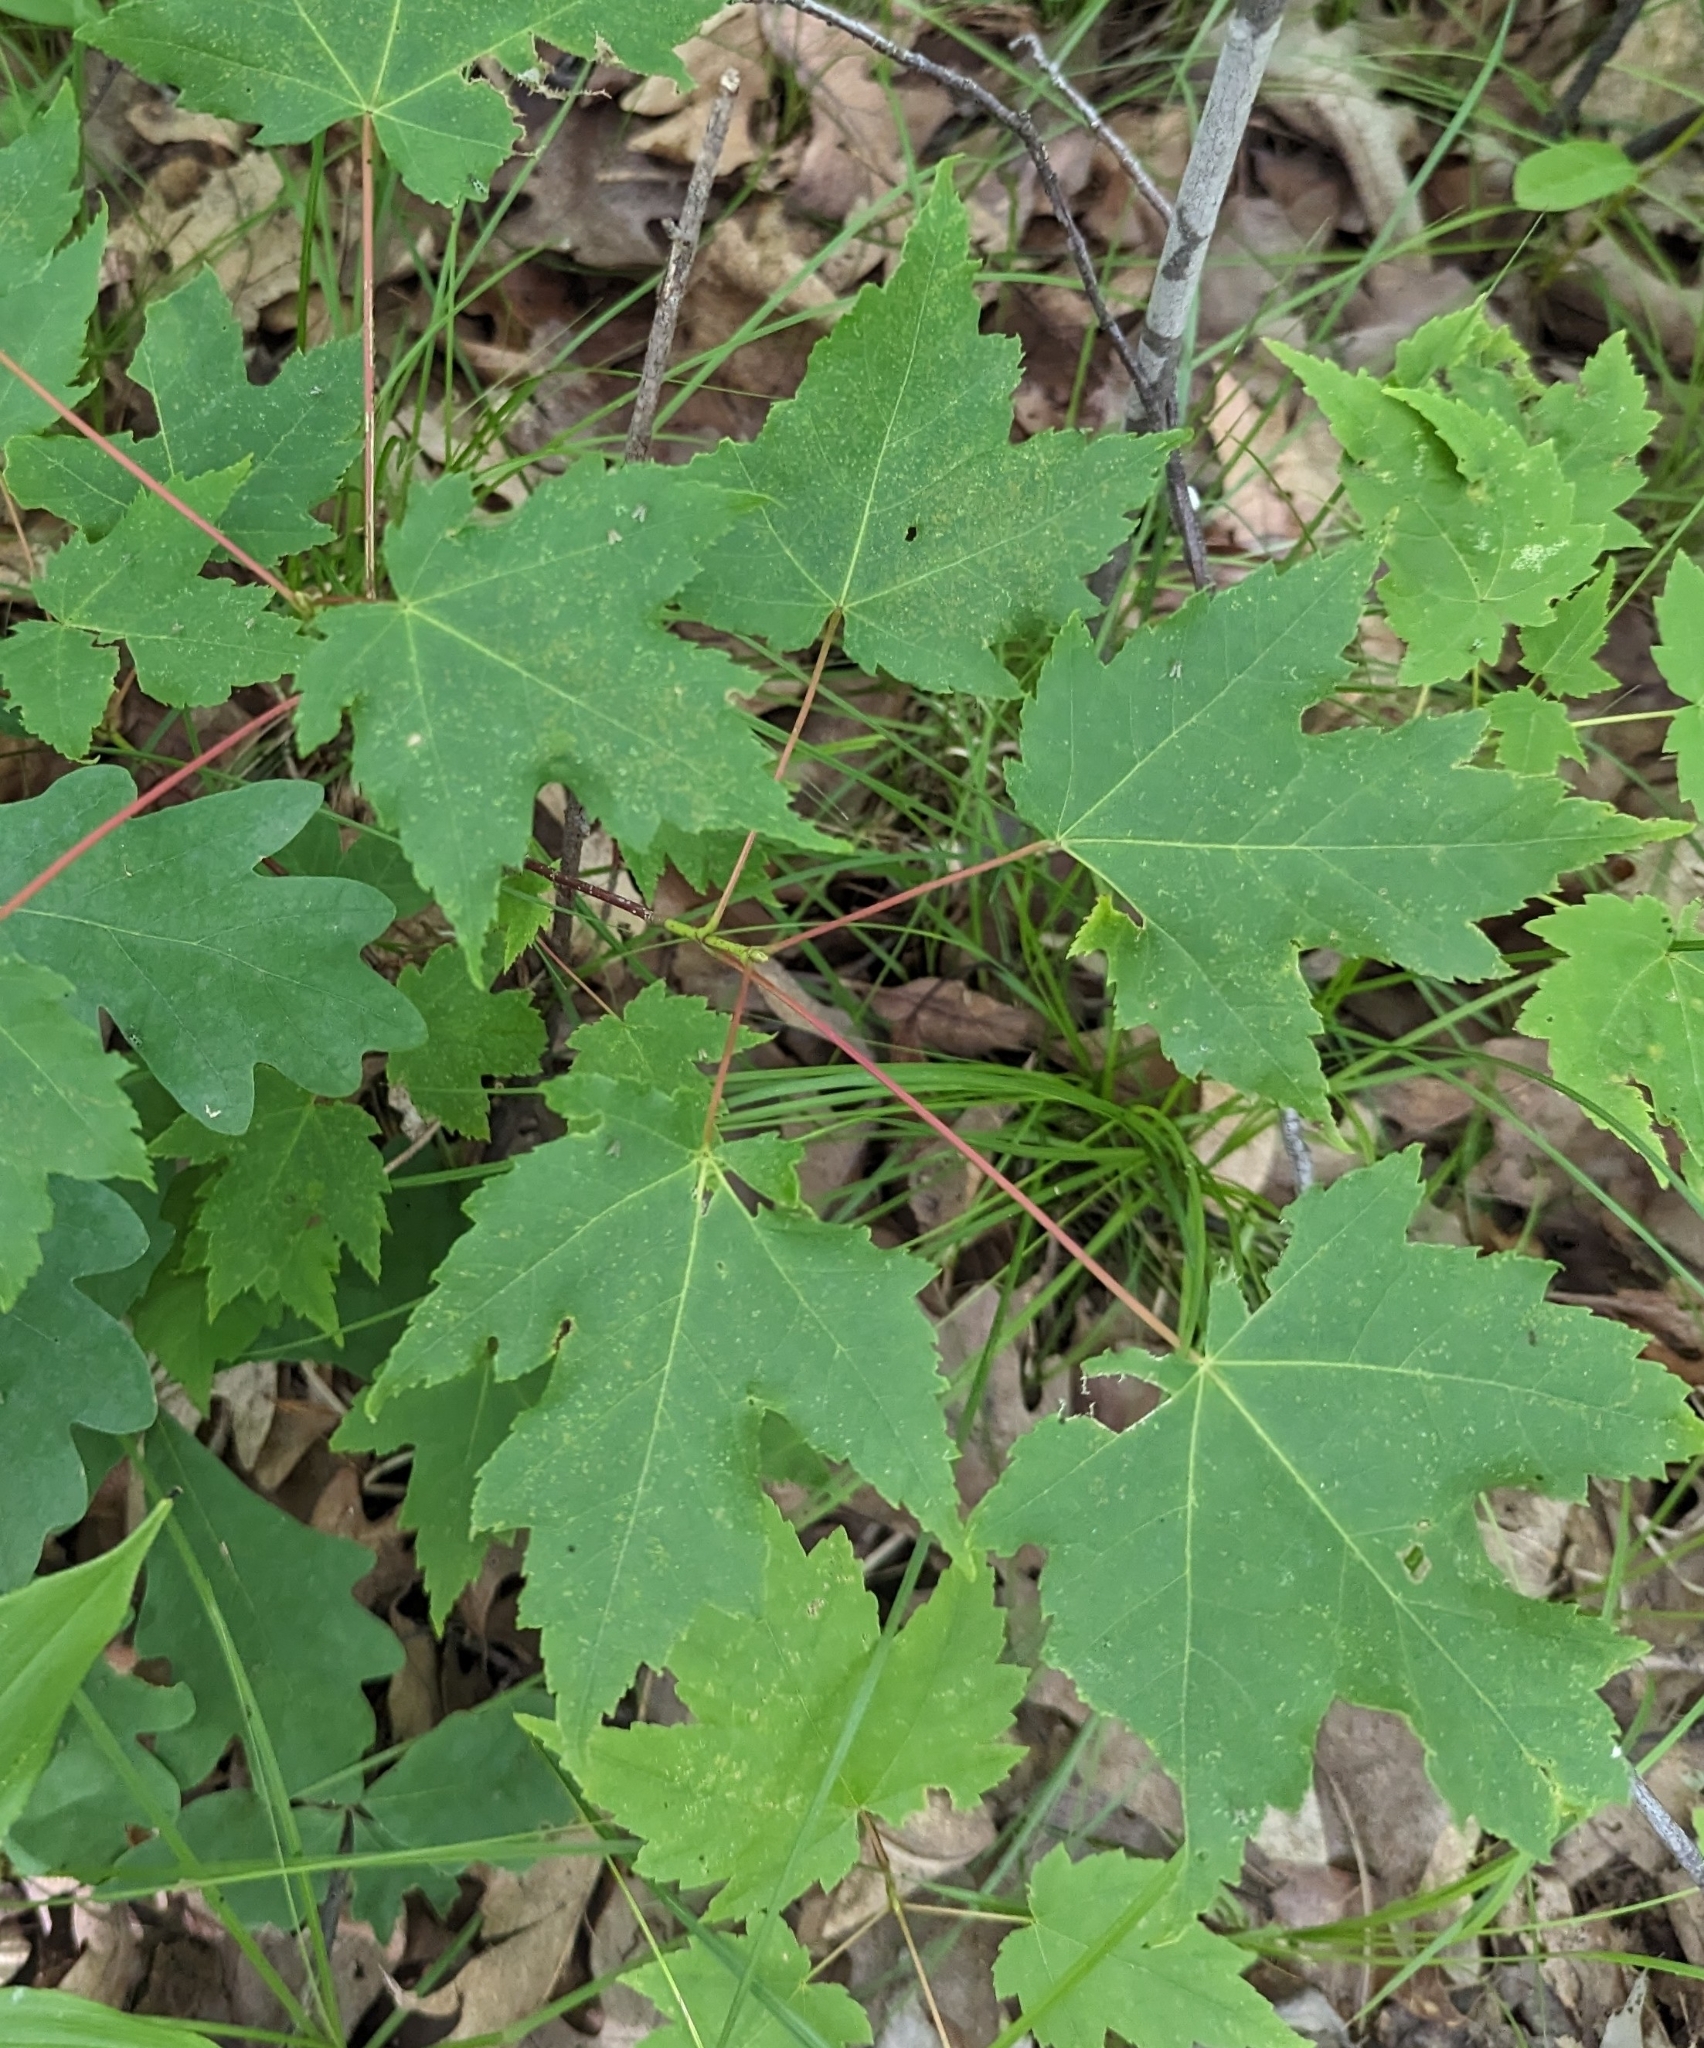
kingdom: Plantae
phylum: Tracheophyta
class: Magnoliopsida
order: Sapindales
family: Sapindaceae
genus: Acer
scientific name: Acer rubrum
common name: Red maple
